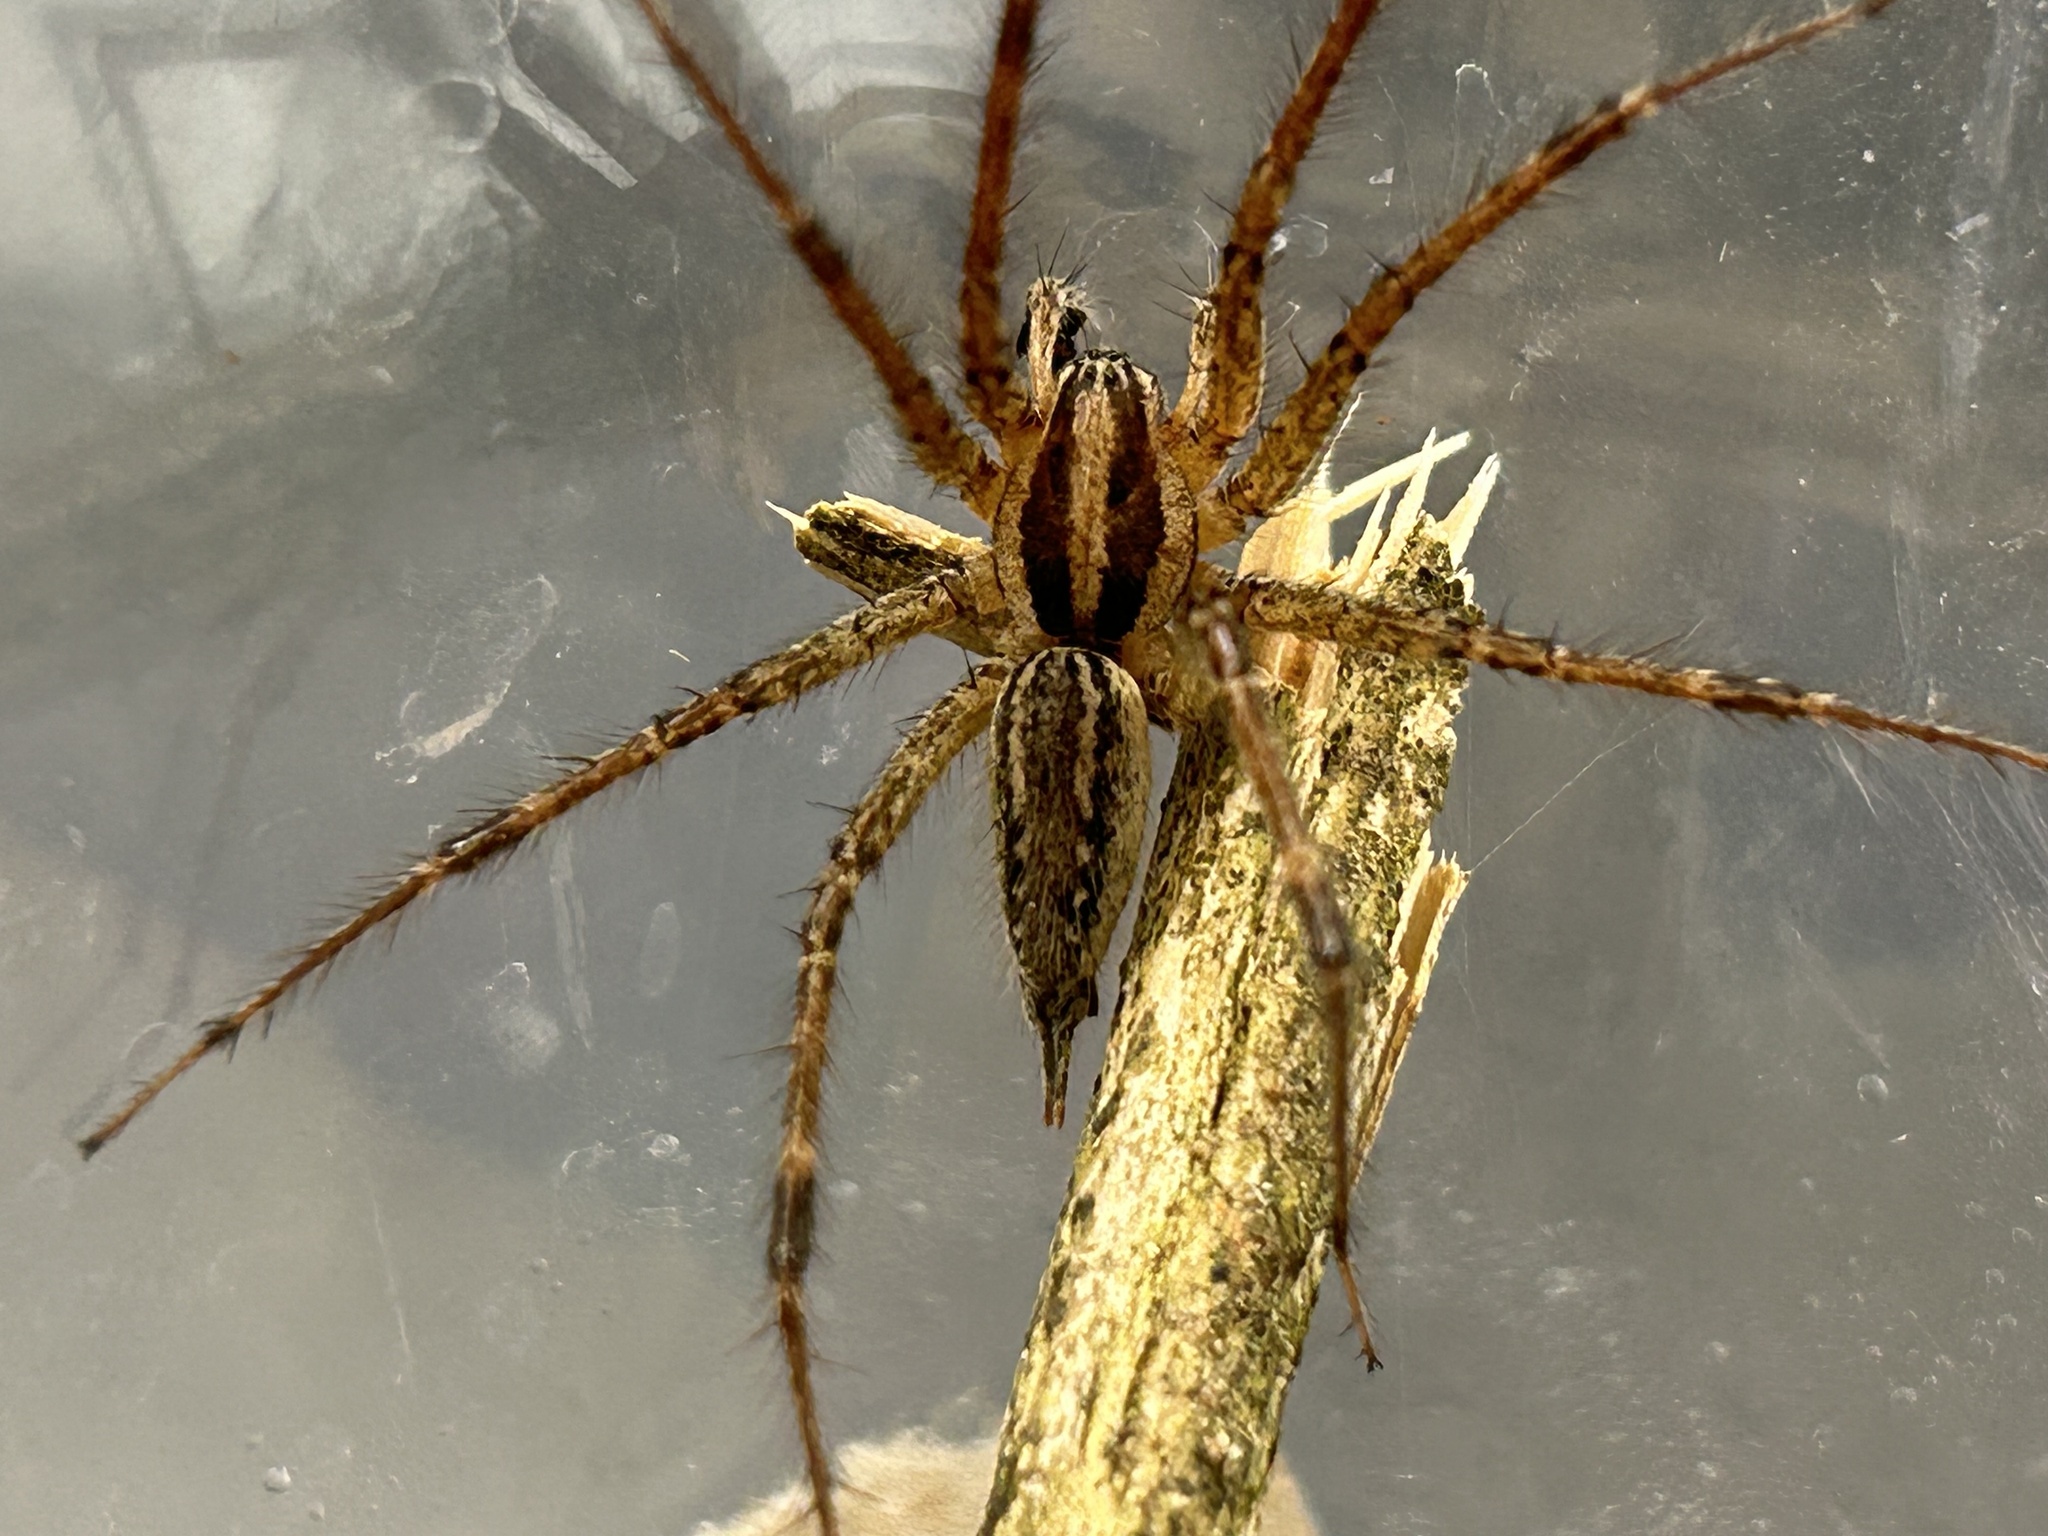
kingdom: Animalia
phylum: Arthropoda
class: Arachnida
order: Araneae
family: Agelenidae
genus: Agelenopsis
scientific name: Agelenopsis
